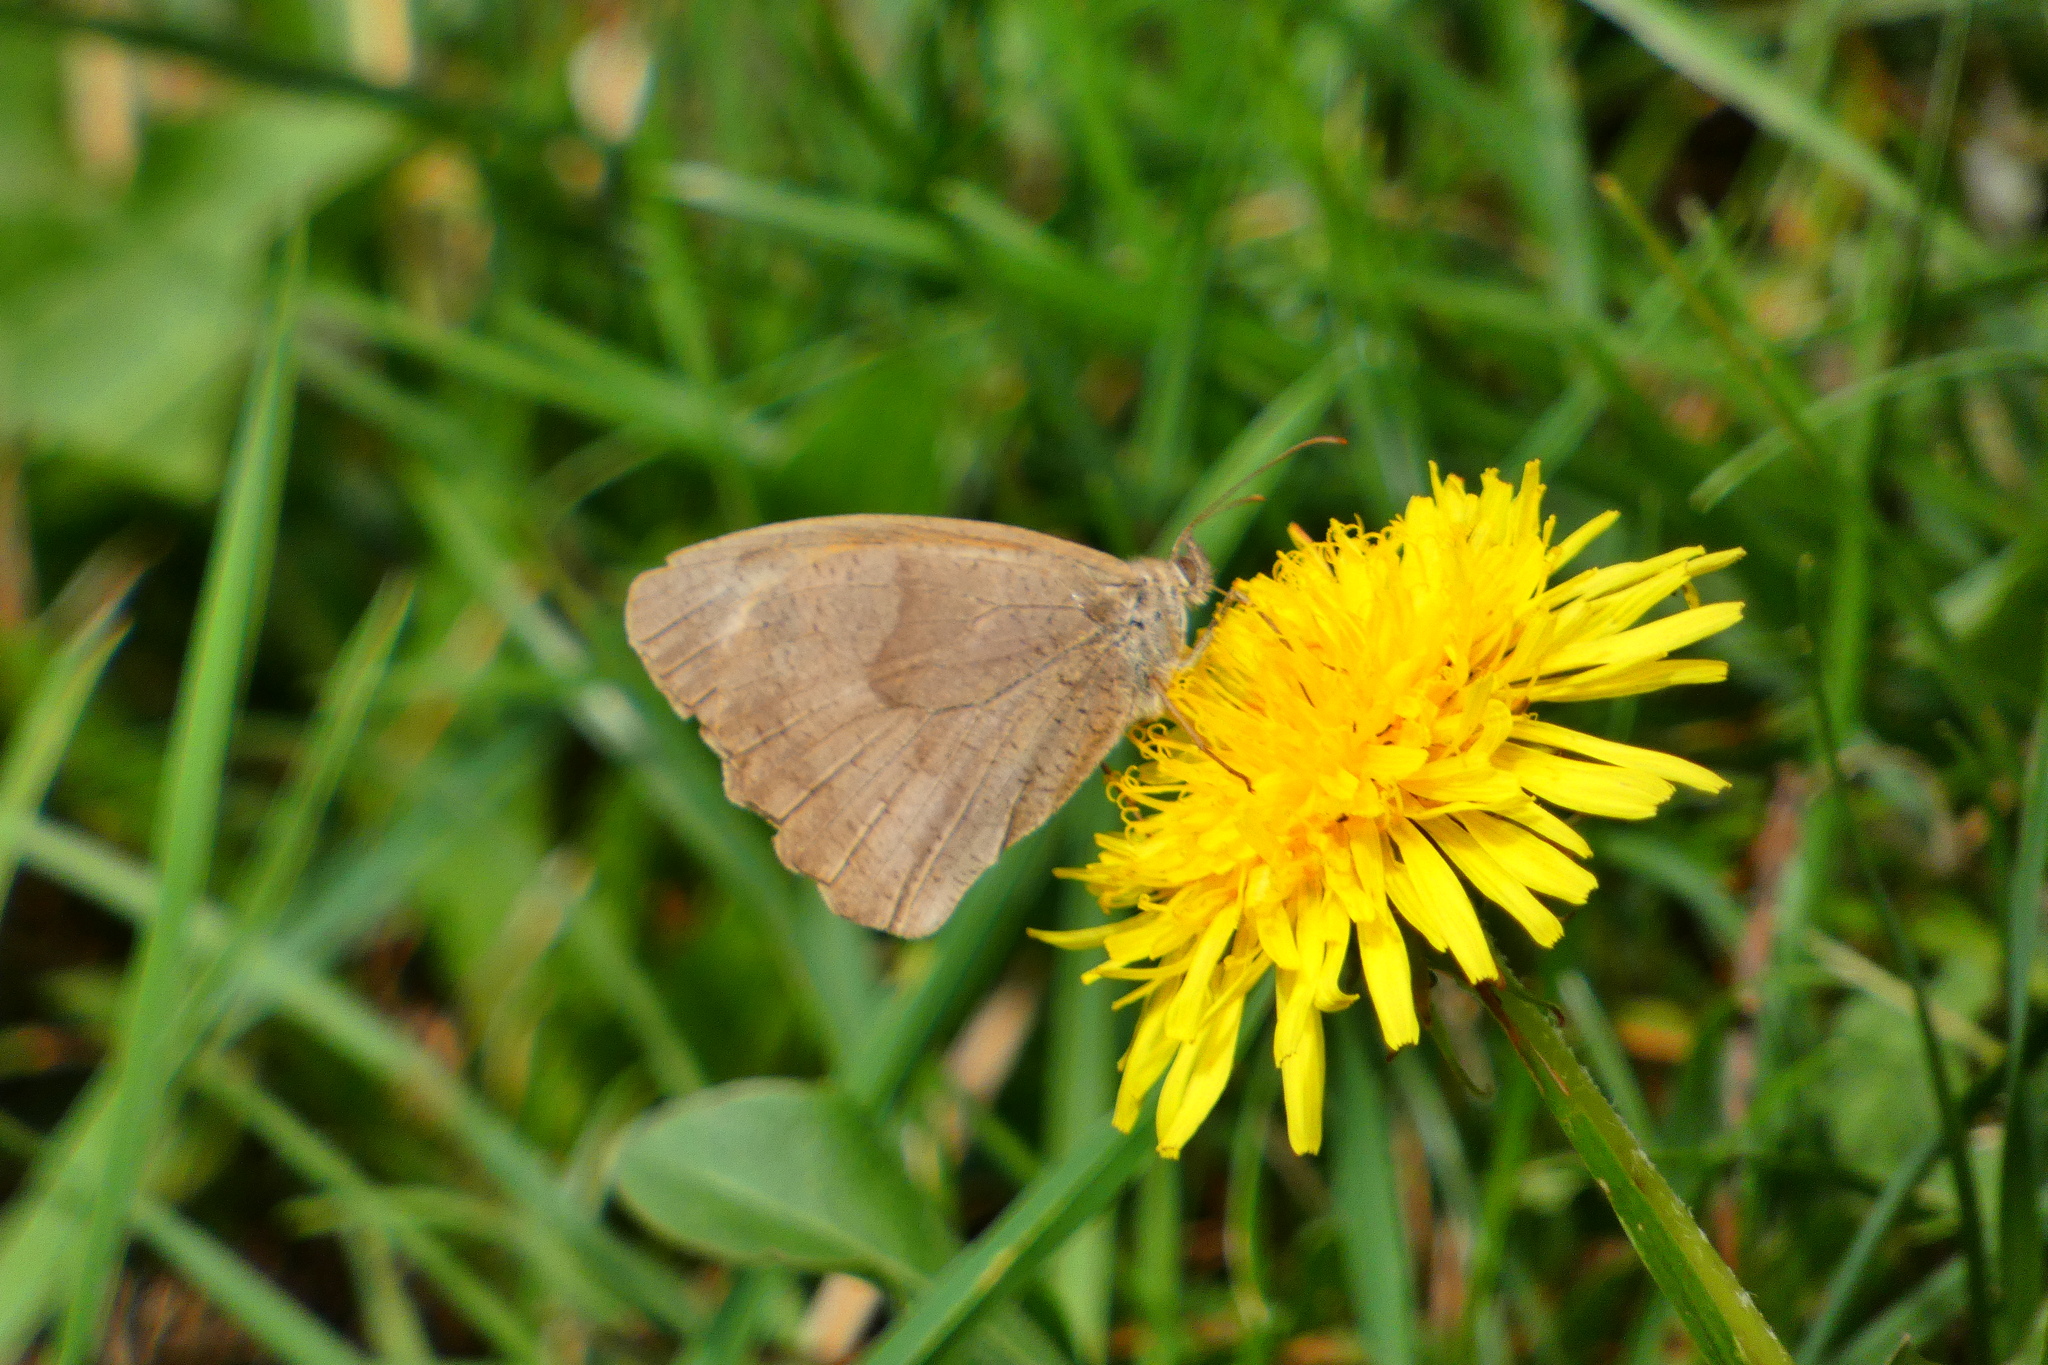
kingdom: Animalia
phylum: Arthropoda
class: Insecta
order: Lepidoptera
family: Nymphalidae
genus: Maniola
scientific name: Maniola jurtina
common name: Meadow brown
